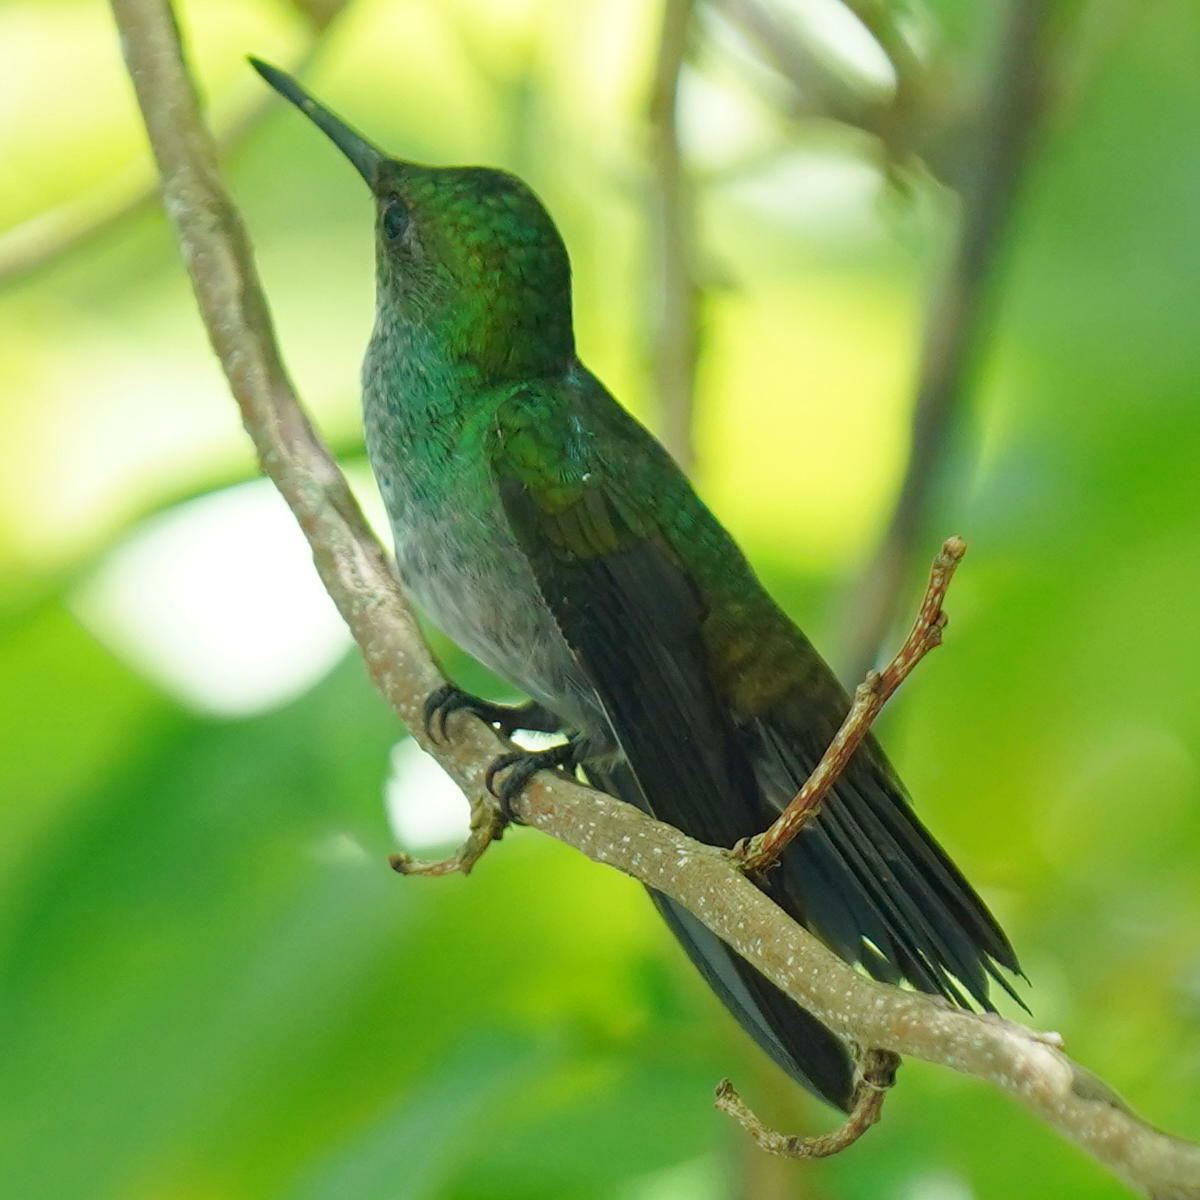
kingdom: Animalia
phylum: Chordata
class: Aves
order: Apodiformes
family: Trochilidae
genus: Polyerata
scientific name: Polyerata amabilis
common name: Blue-chested hummingbird
